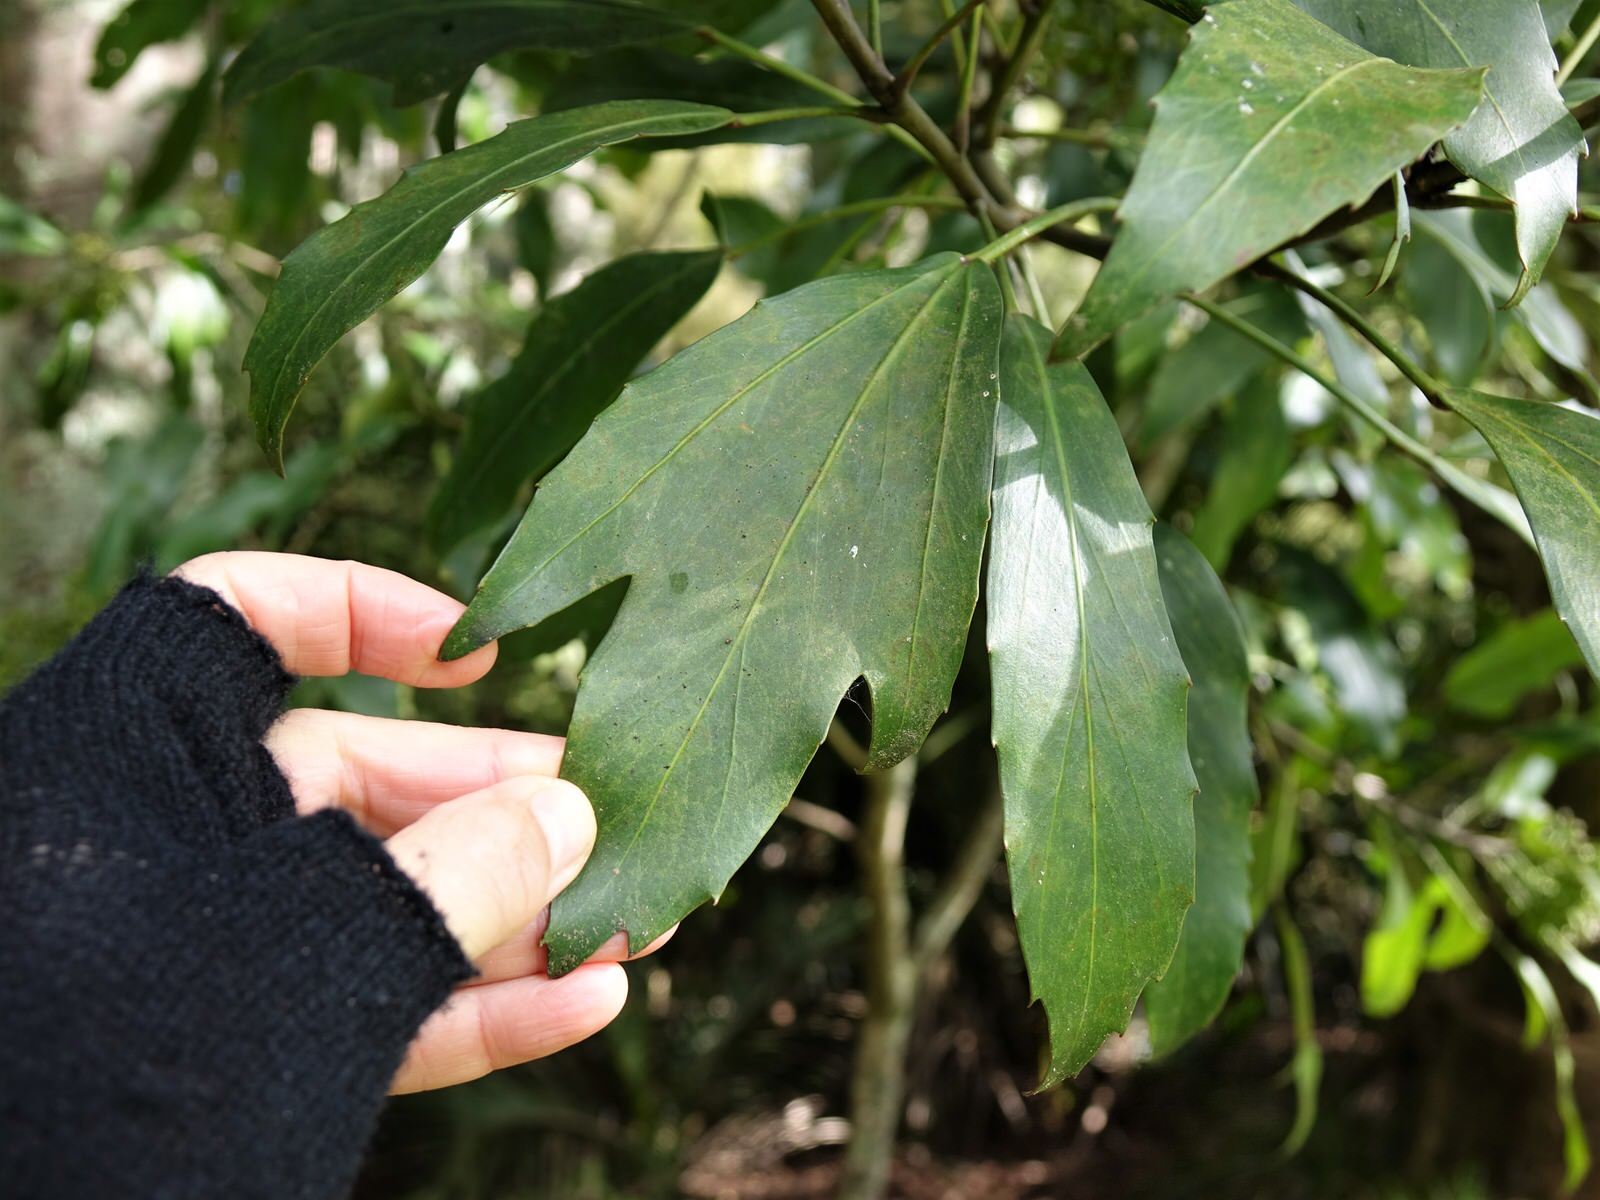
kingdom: Plantae
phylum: Tracheophyta
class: Magnoliopsida
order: Apiales
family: Araliaceae
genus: Pseudopanax
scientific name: Pseudopanax
